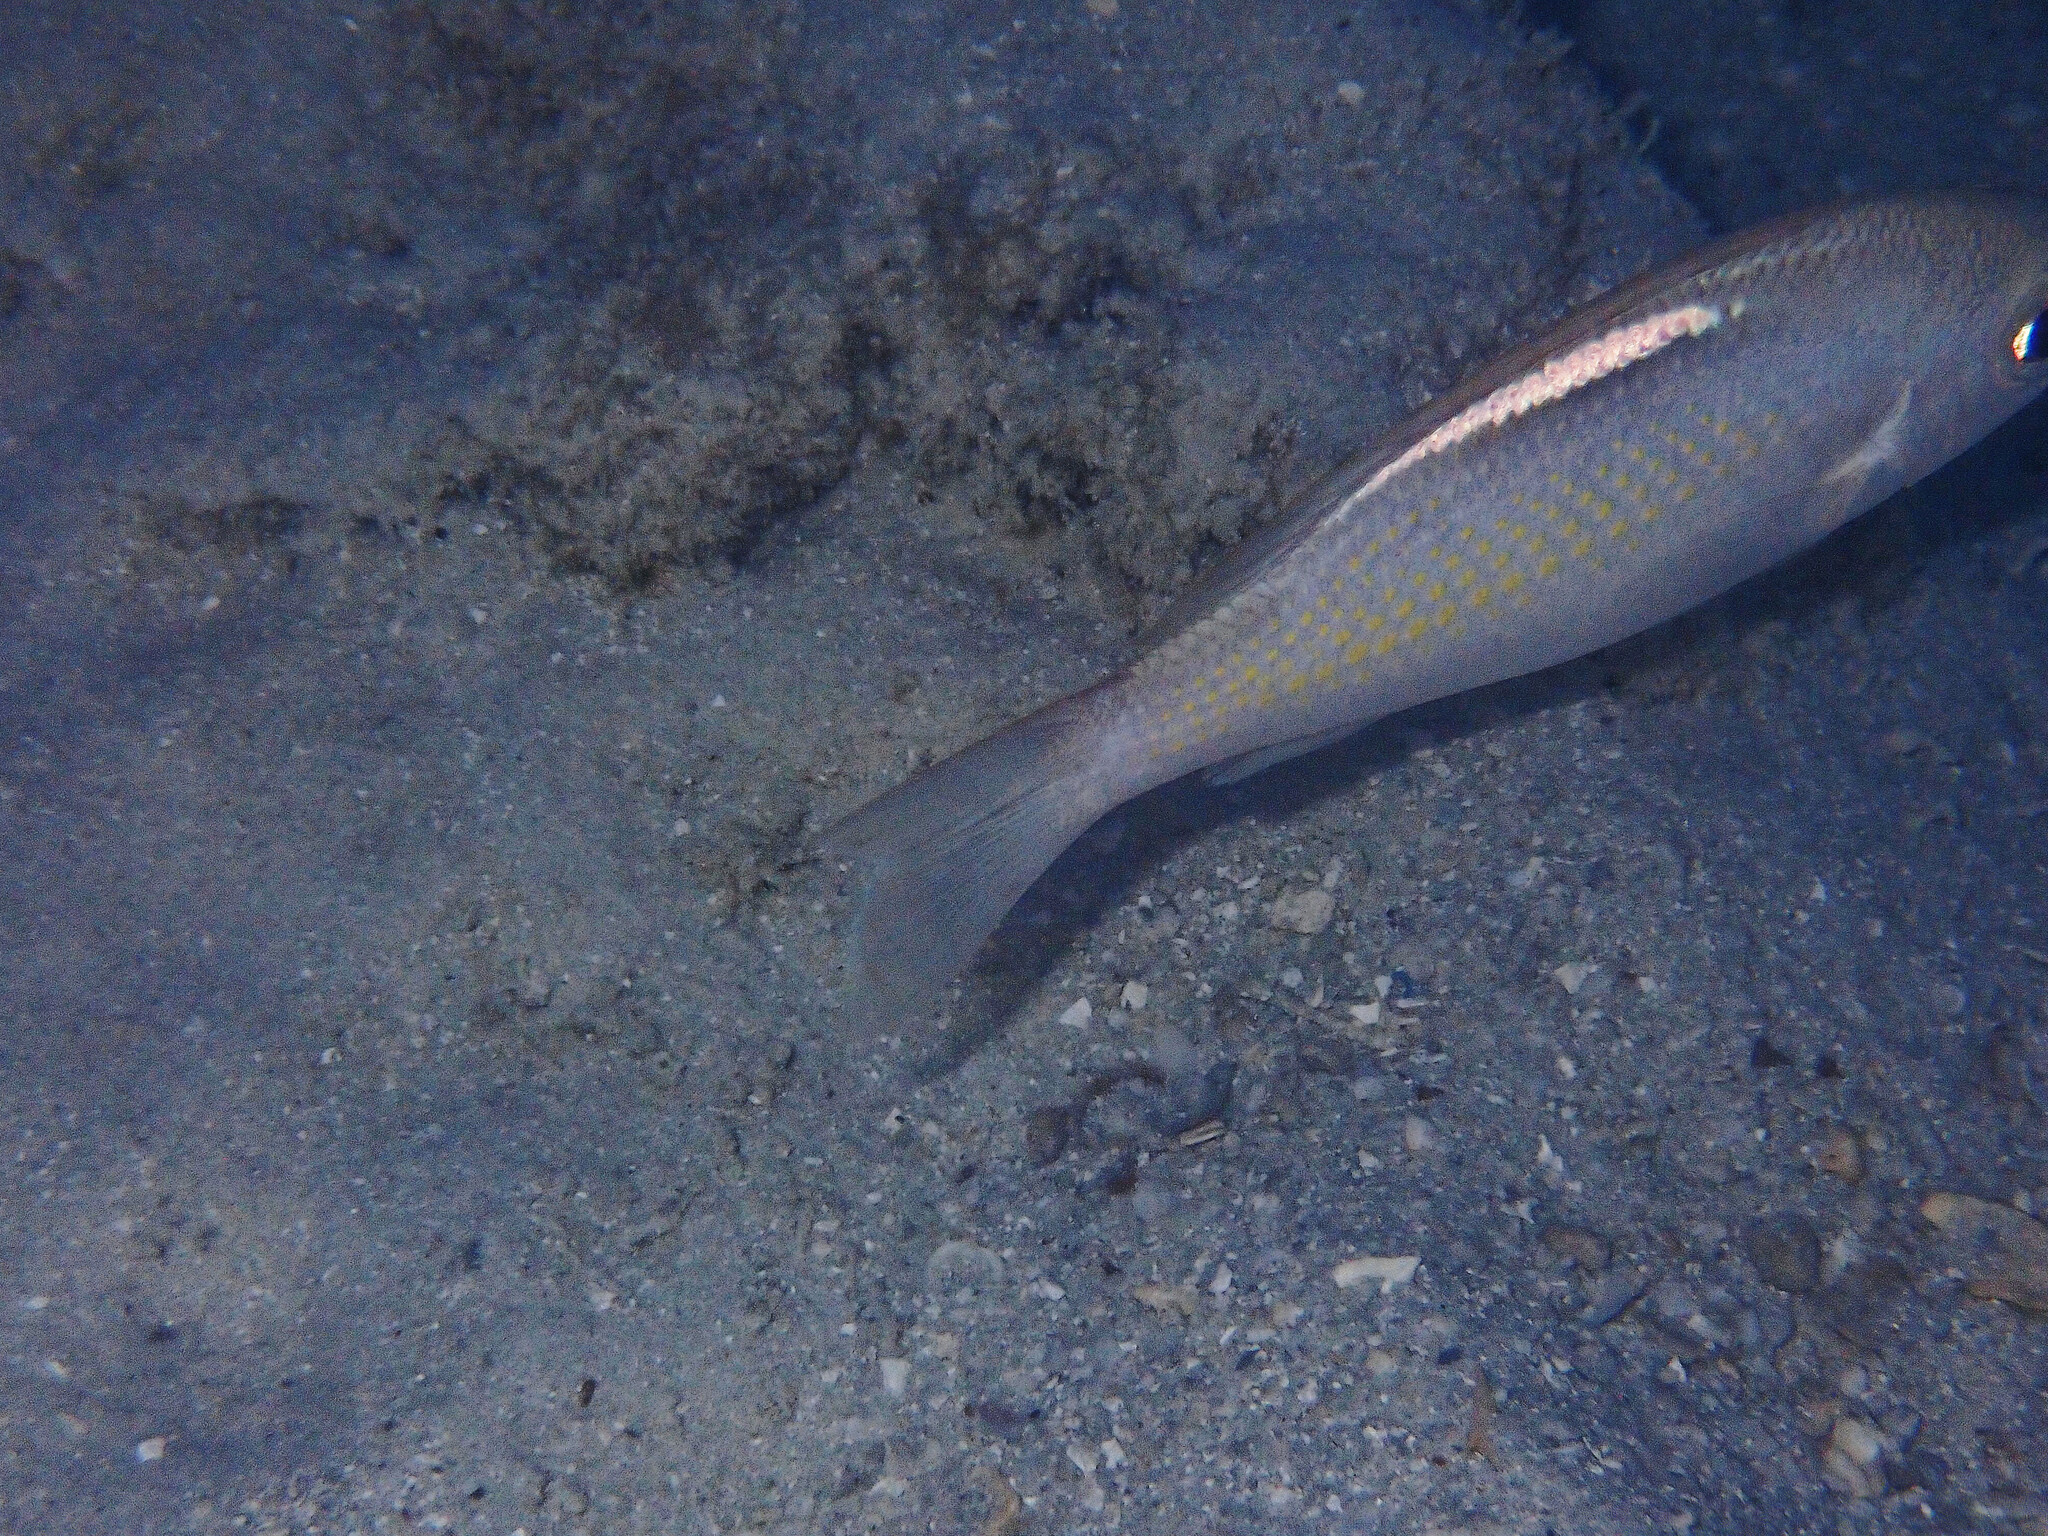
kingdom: Animalia
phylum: Chordata
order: Perciformes
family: Nemipteridae
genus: Scolopsis
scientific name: Scolopsis ciliata
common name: Ciliate spinecheek
